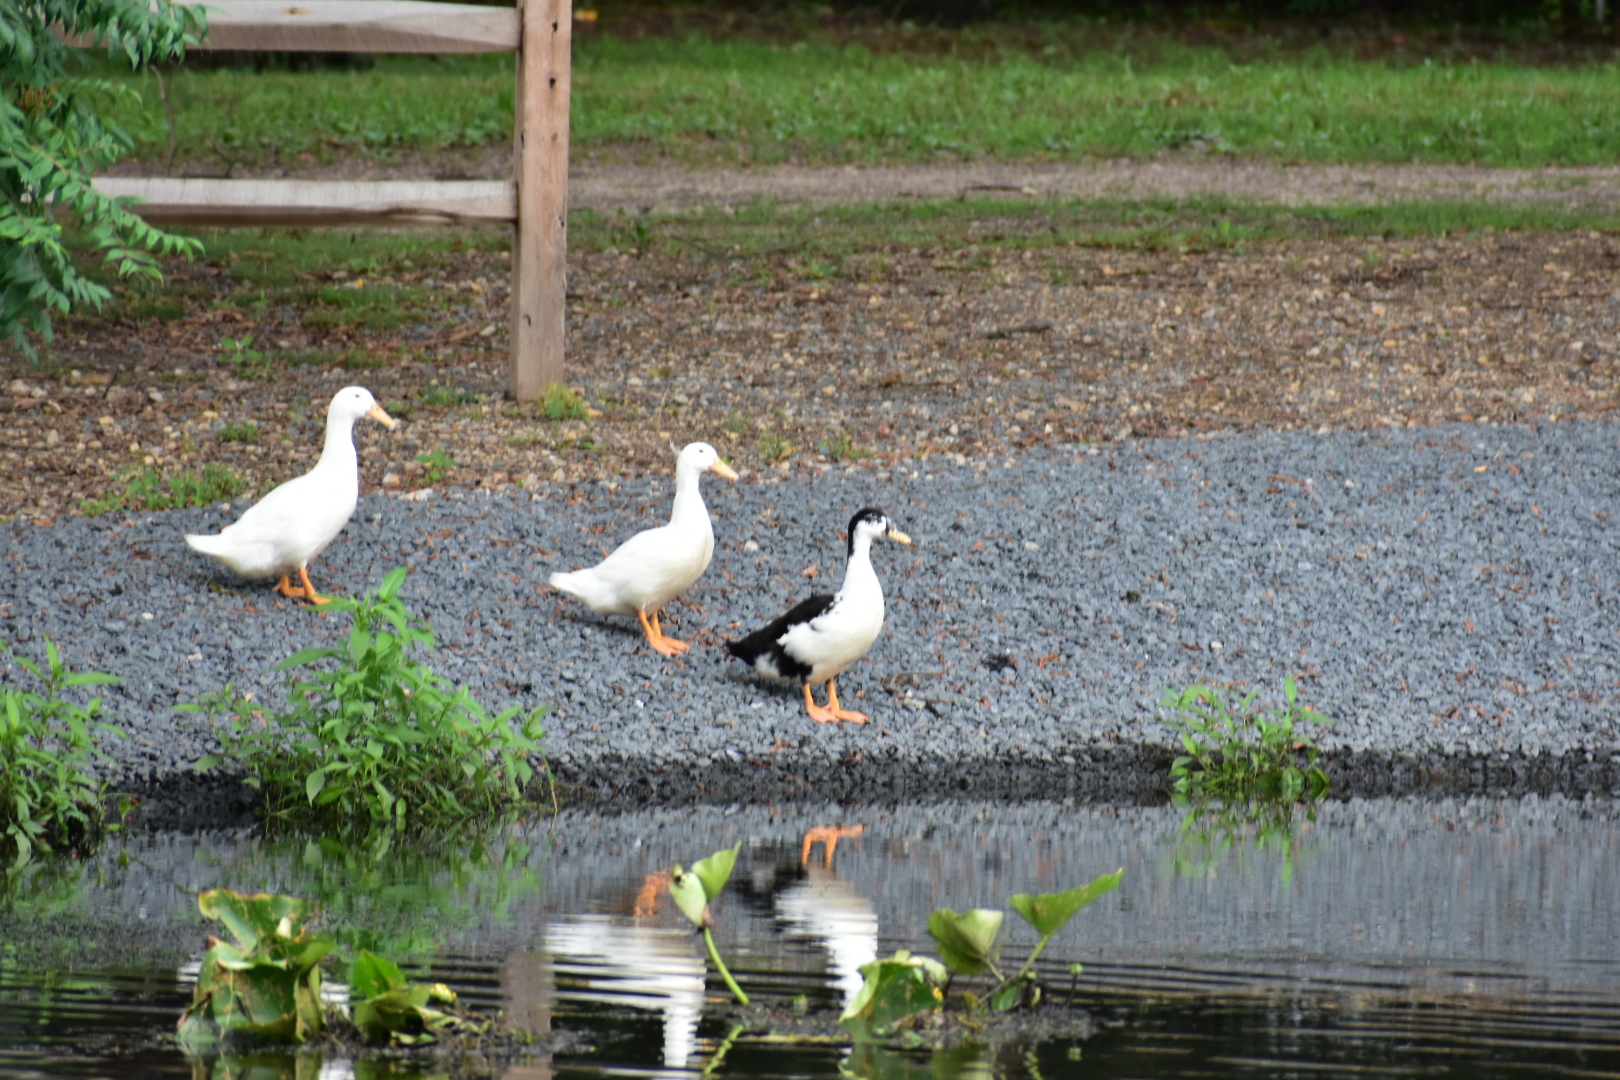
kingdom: Animalia
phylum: Chordata
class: Aves
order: Anseriformes
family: Anatidae
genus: Anas
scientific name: Anas platyrhynchos
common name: Mallard
